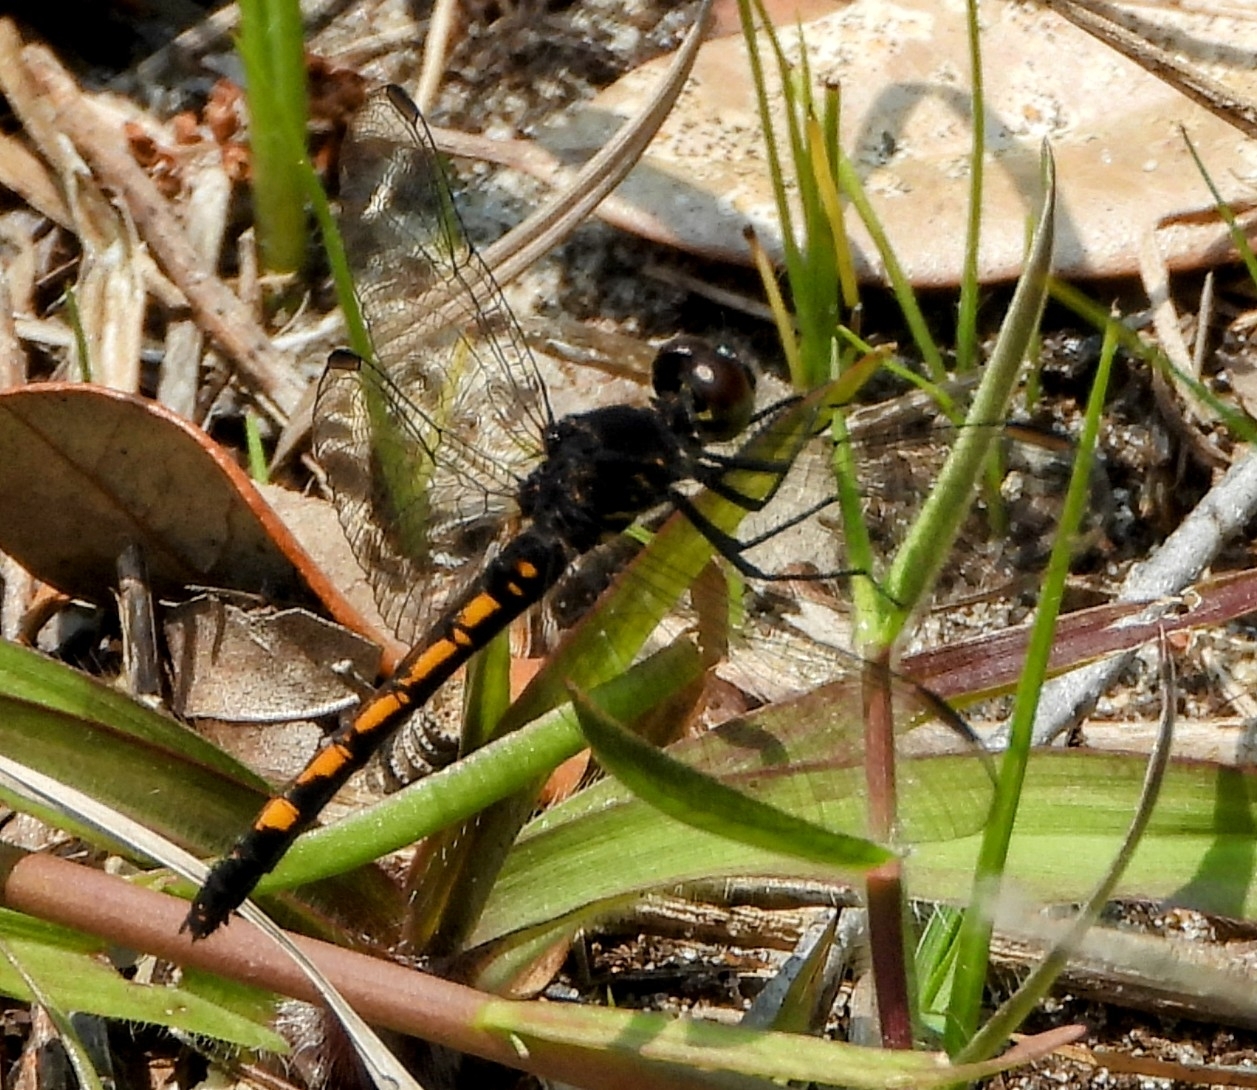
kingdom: Animalia
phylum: Arthropoda
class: Insecta
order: Odonata
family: Libellulidae
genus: Erythrodiplax
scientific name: Erythrodiplax berenice
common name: Seaside dragonlet
